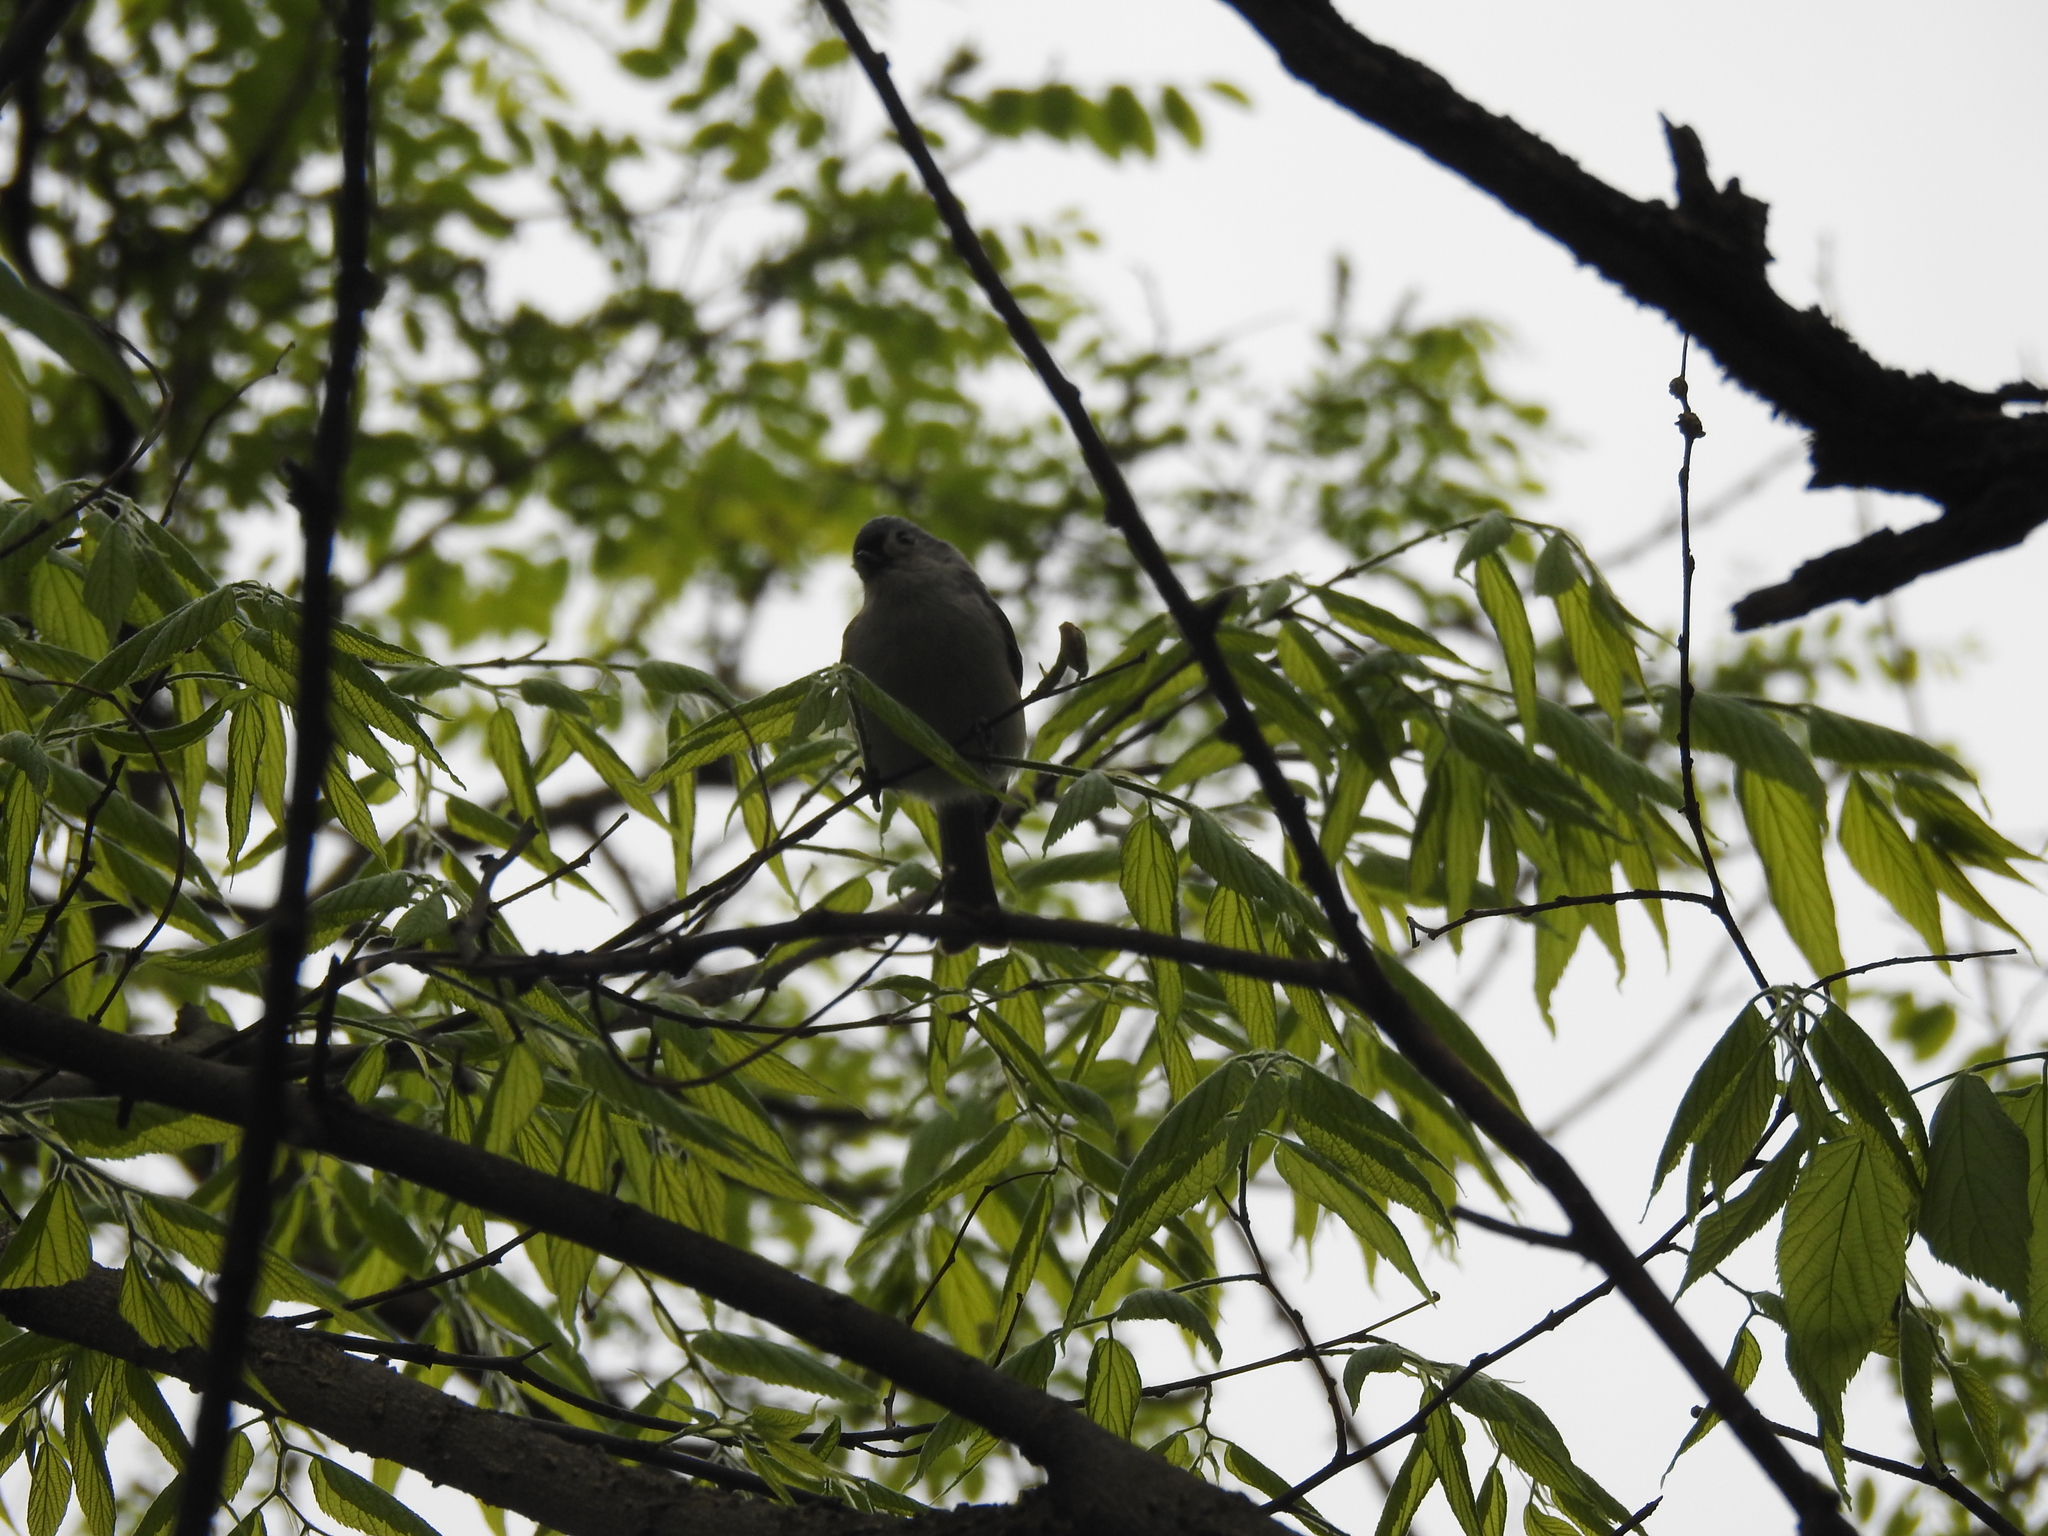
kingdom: Animalia
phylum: Chordata
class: Aves
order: Passeriformes
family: Paridae
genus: Baeolophus
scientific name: Baeolophus bicolor
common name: Tufted titmouse
